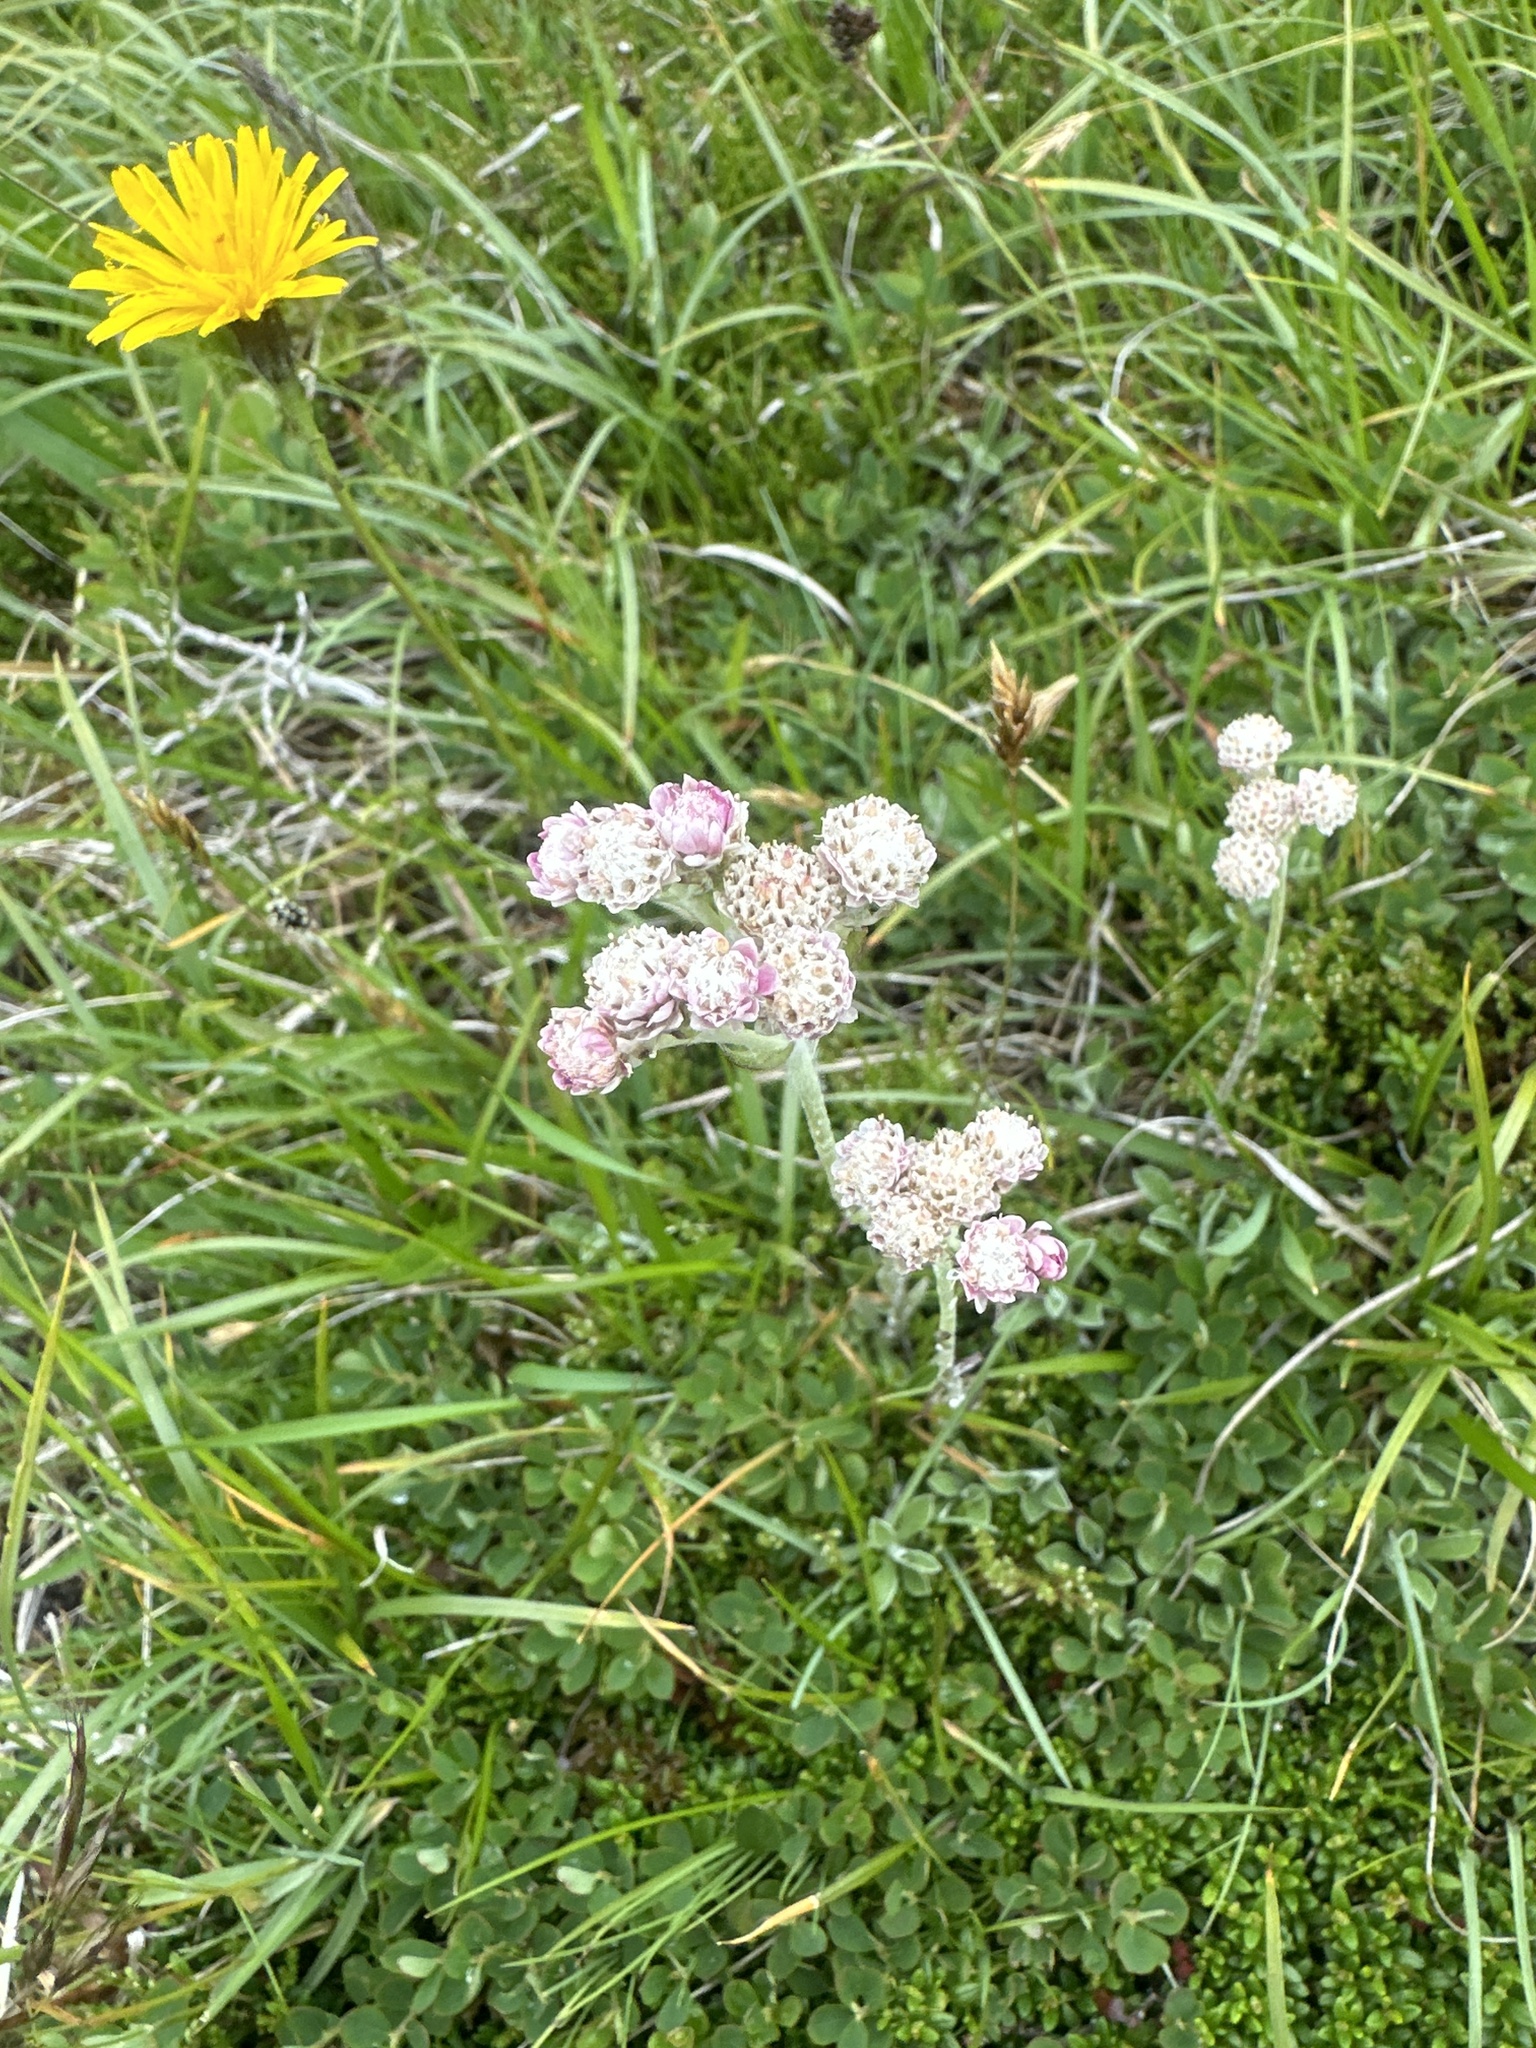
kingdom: Plantae
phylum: Tracheophyta
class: Magnoliopsida
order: Asterales
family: Asteraceae
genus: Antennaria
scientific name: Antennaria dioica
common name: Mountain everlasting
